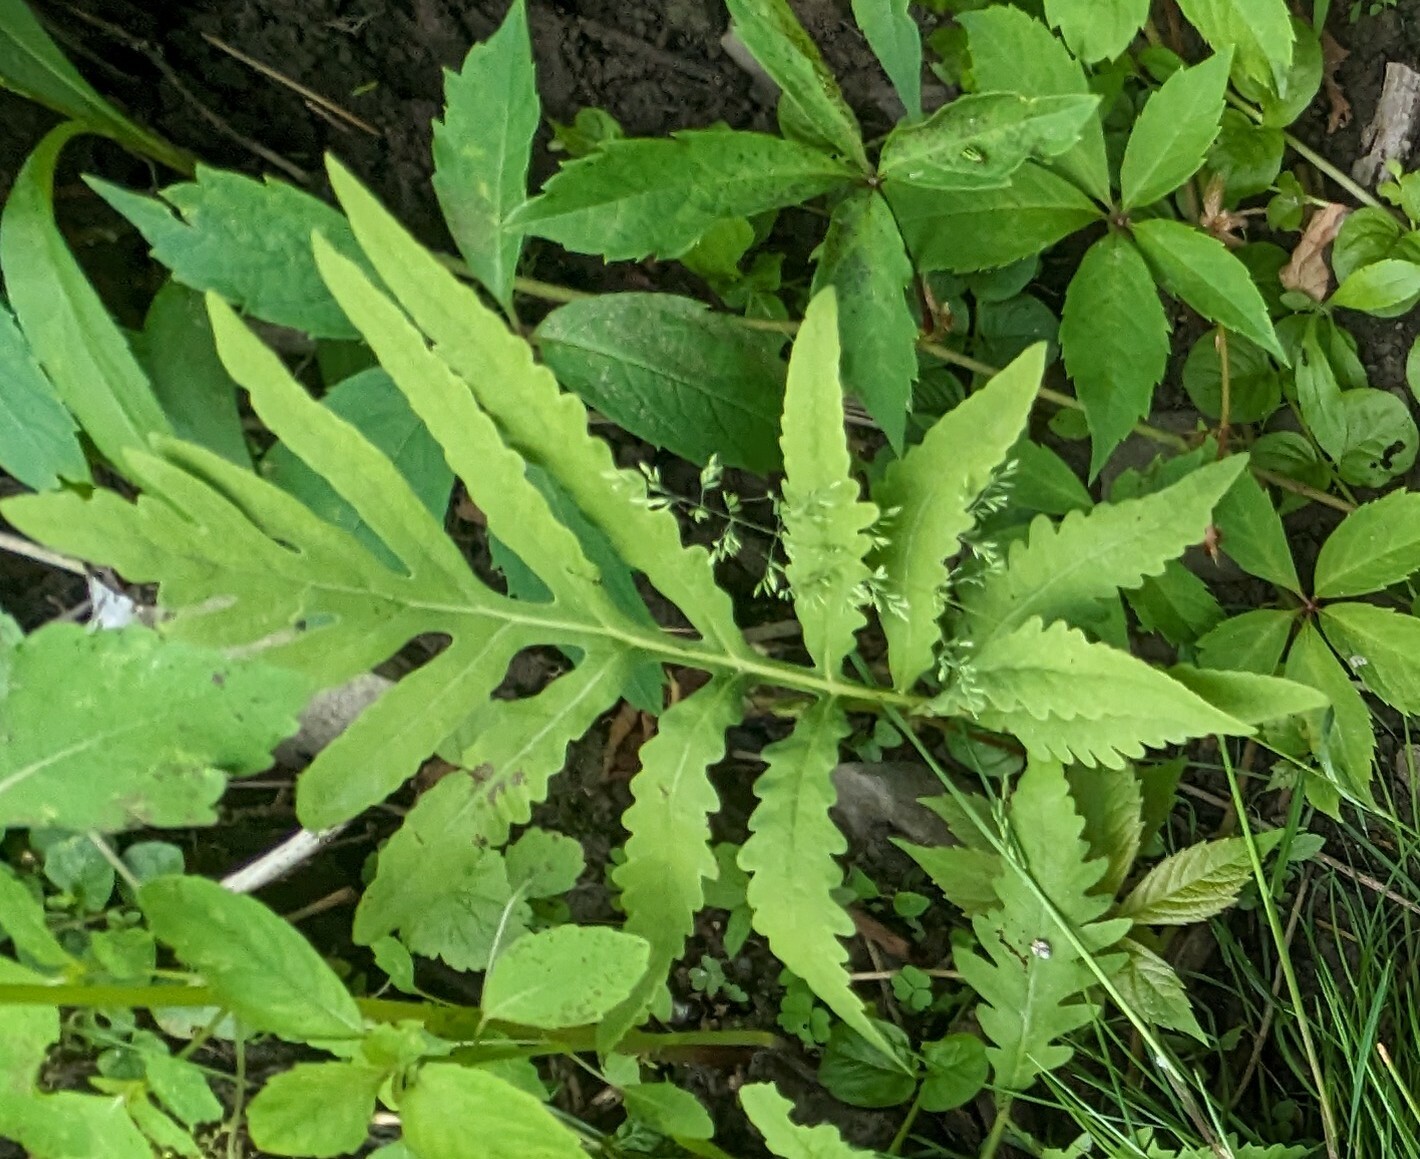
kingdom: Plantae
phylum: Tracheophyta
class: Polypodiopsida
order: Polypodiales
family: Onocleaceae
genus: Onoclea
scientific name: Onoclea sensibilis
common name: Sensitive fern
